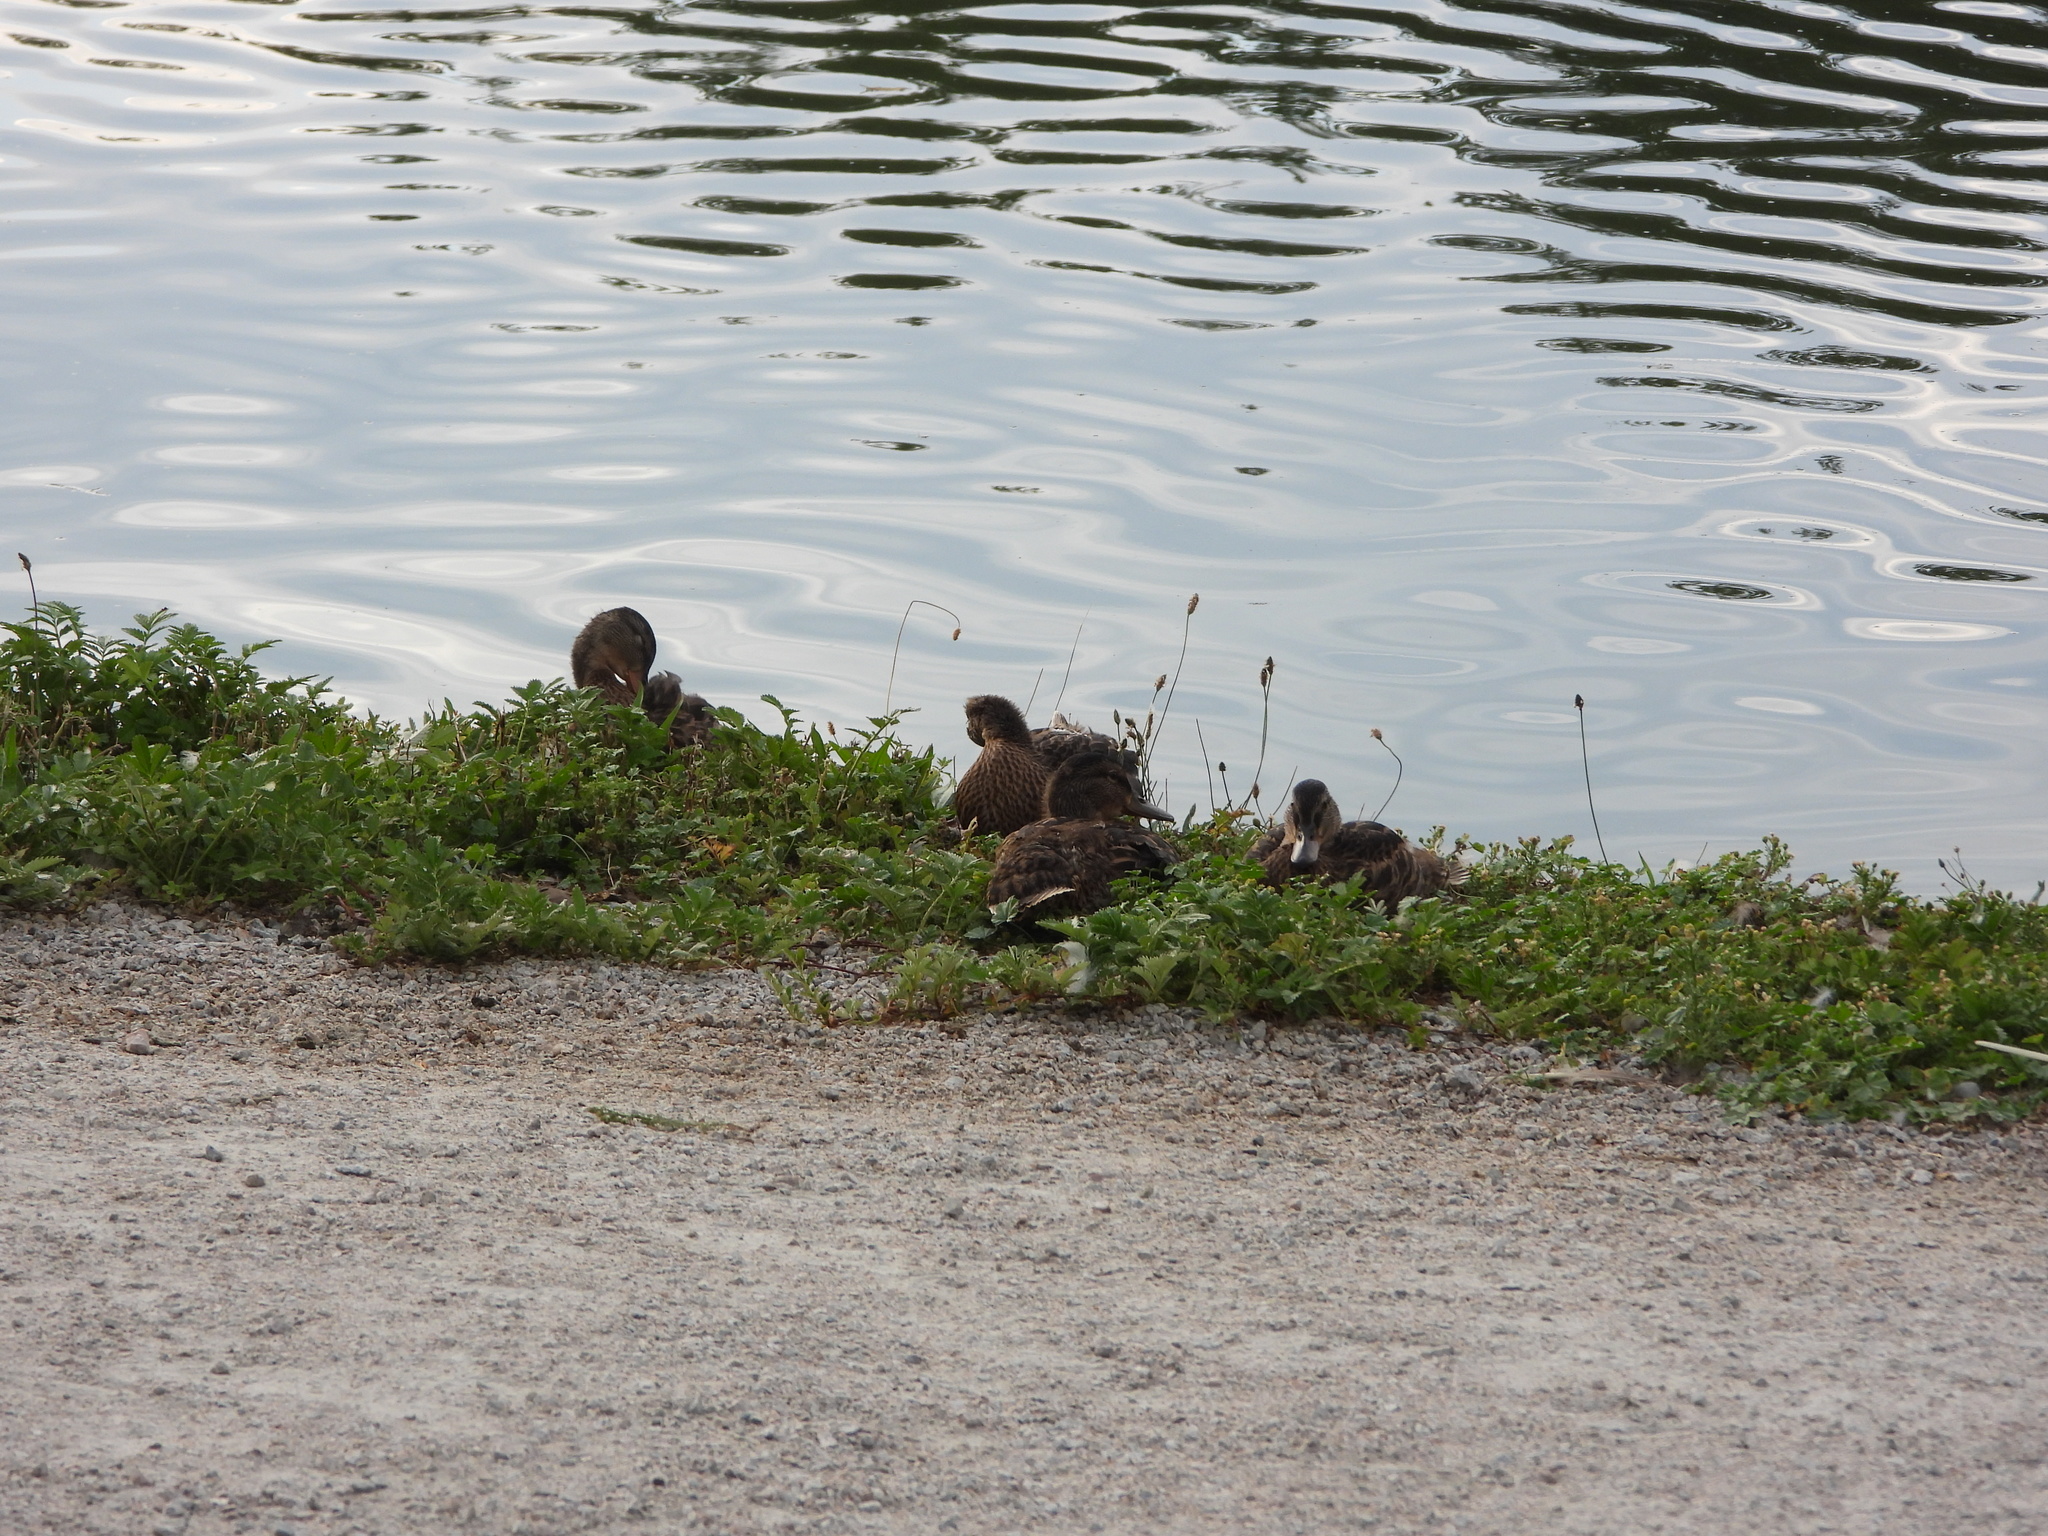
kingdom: Animalia
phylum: Chordata
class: Aves
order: Anseriformes
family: Anatidae
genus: Anas
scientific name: Anas platyrhynchos
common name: Mallard
